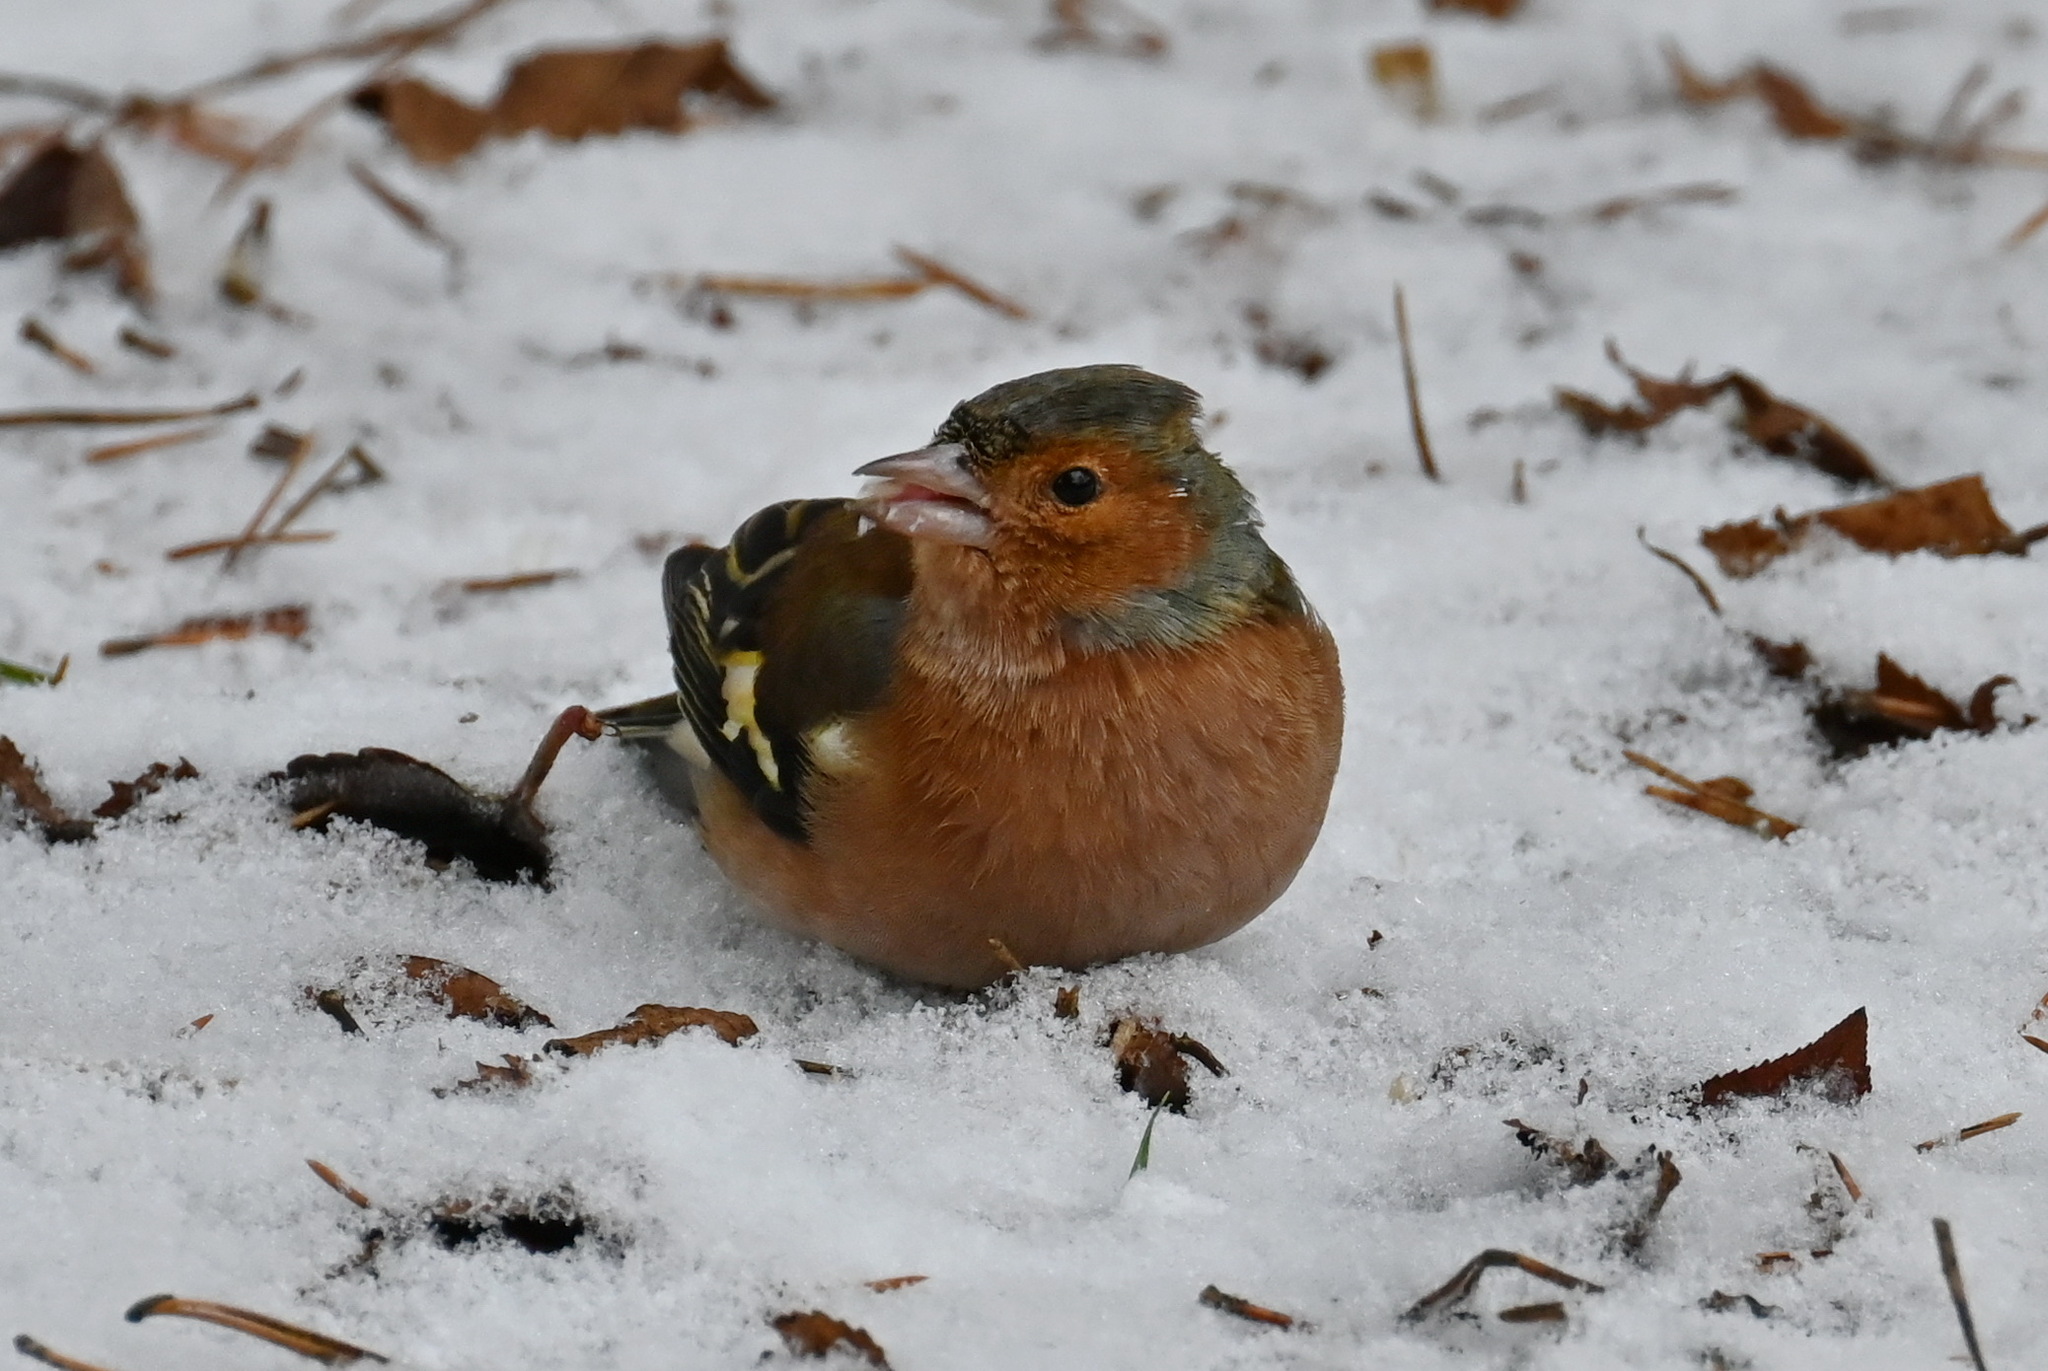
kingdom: Animalia
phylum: Chordata
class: Aves
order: Passeriformes
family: Fringillidae
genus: Fringilla
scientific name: Fringilla coelebs
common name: Common chaffinch
